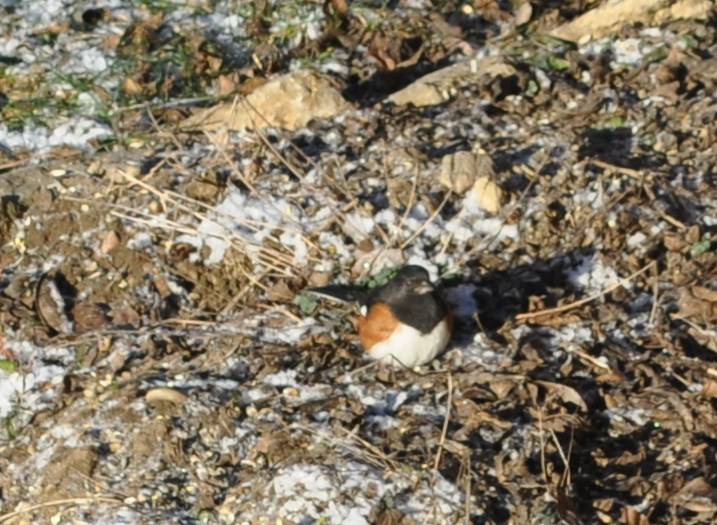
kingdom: Animalia
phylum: Chordata
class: Aves
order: Passeriformes
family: Passerellidae
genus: Pipilo
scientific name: Pipilo erythrophthalmus
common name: Eastern towhee
